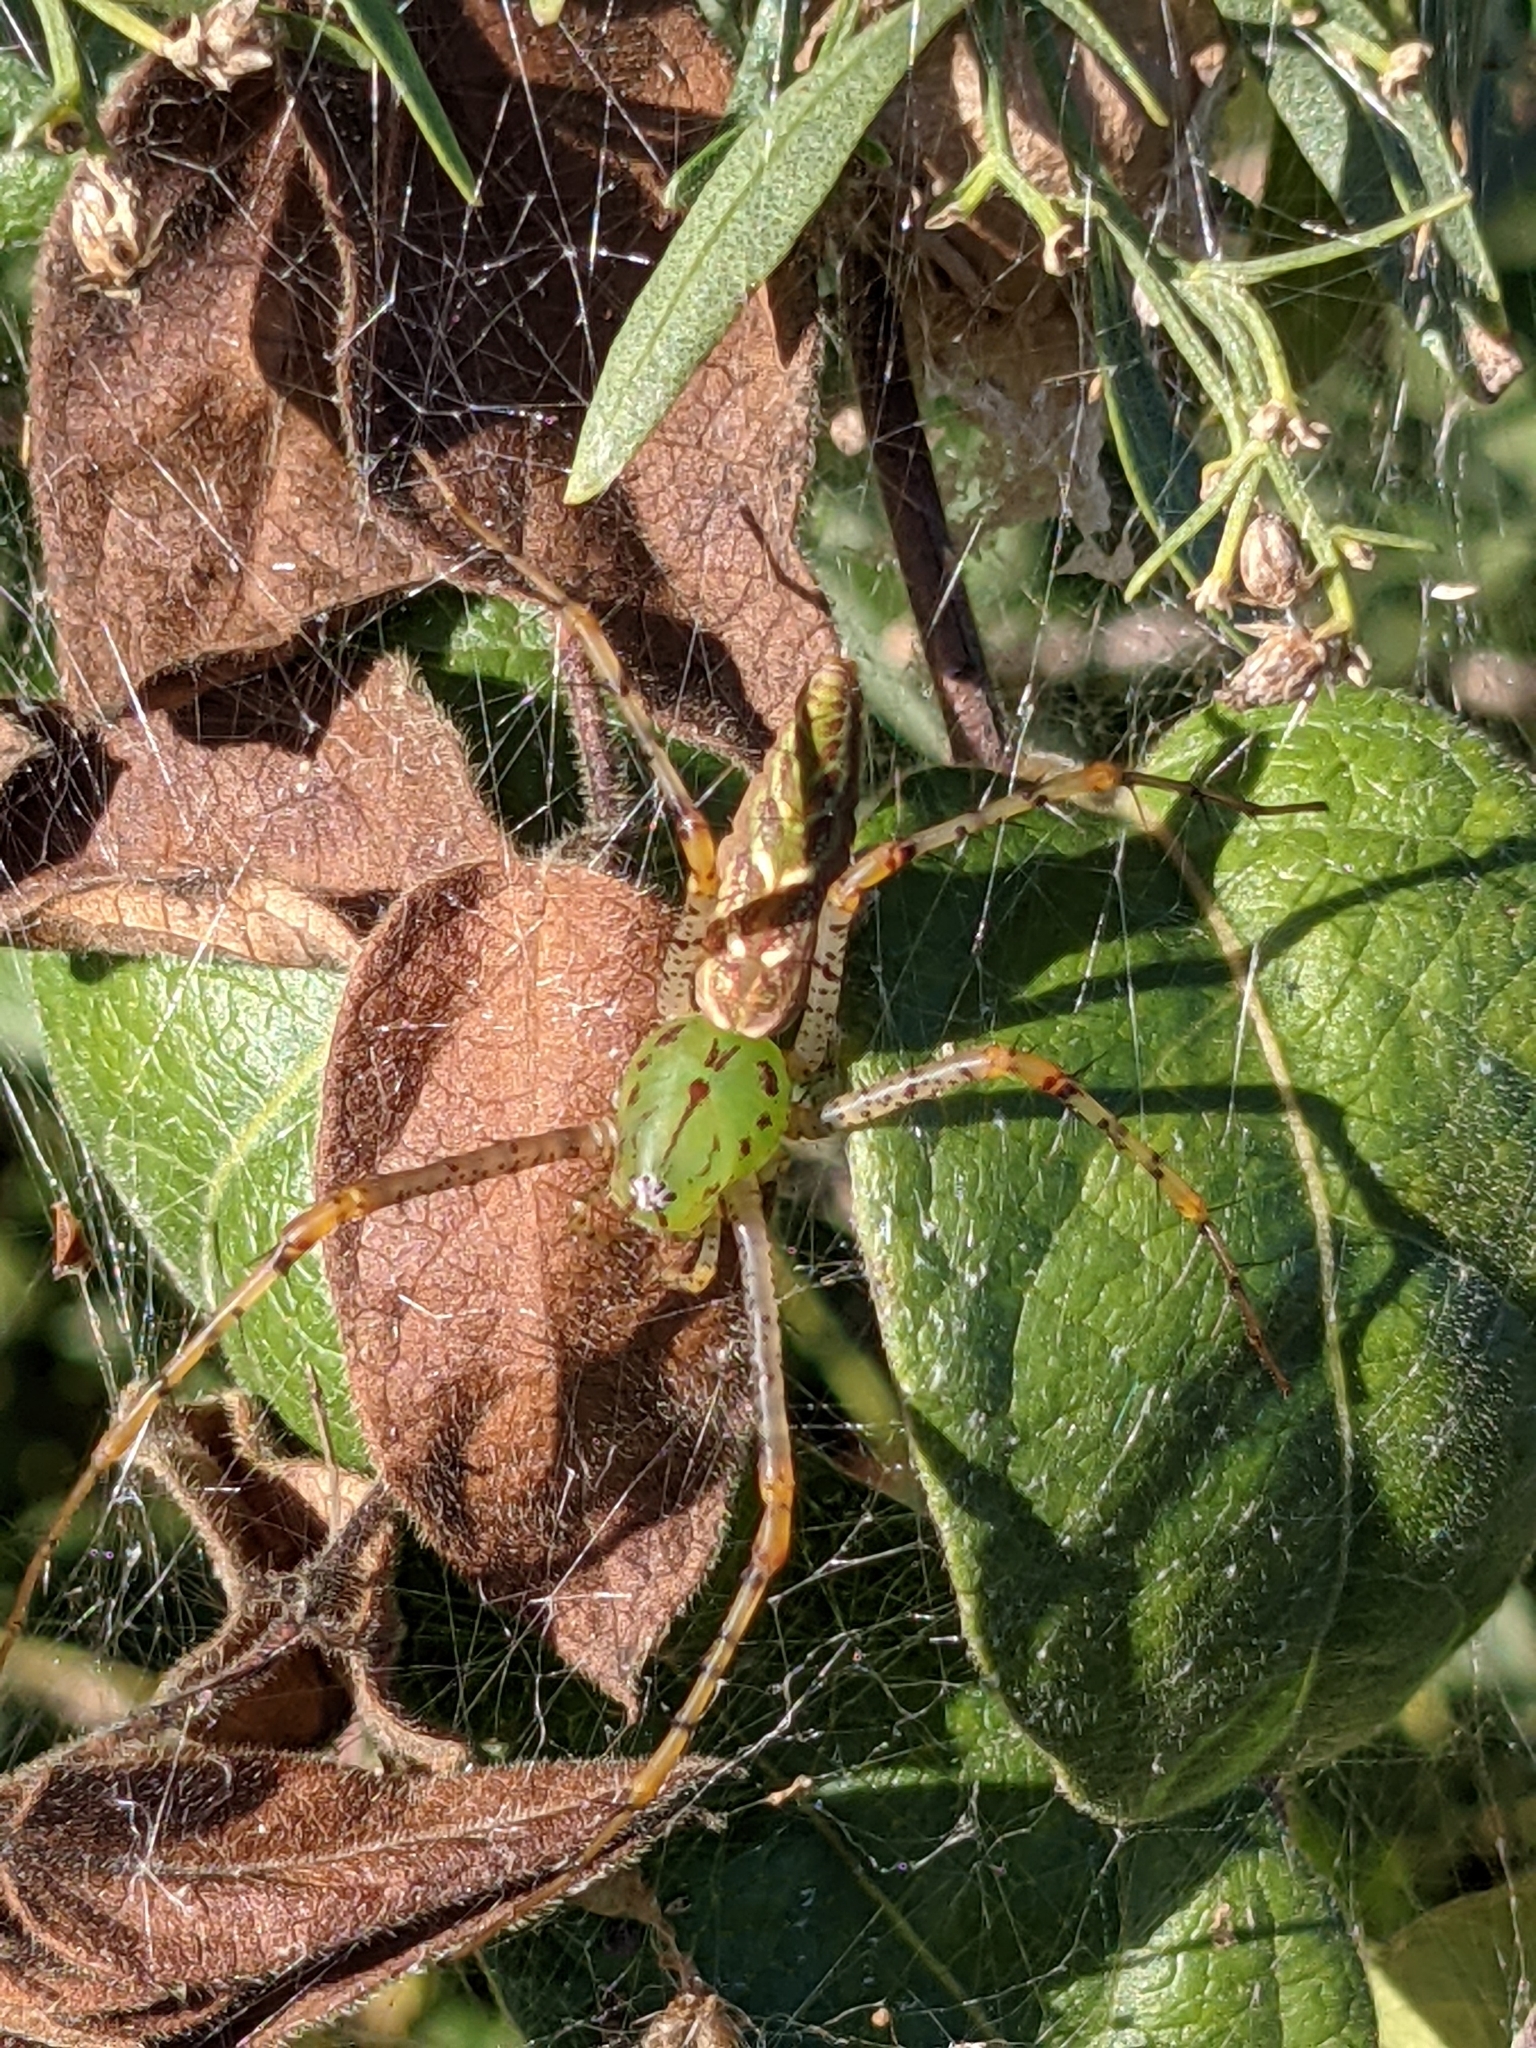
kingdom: Animalia
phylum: Arthropoda
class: Arachnida
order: Araneae
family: Oxyopidae
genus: Peucetia
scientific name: Peucetia viridans
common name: Lynx spiders
